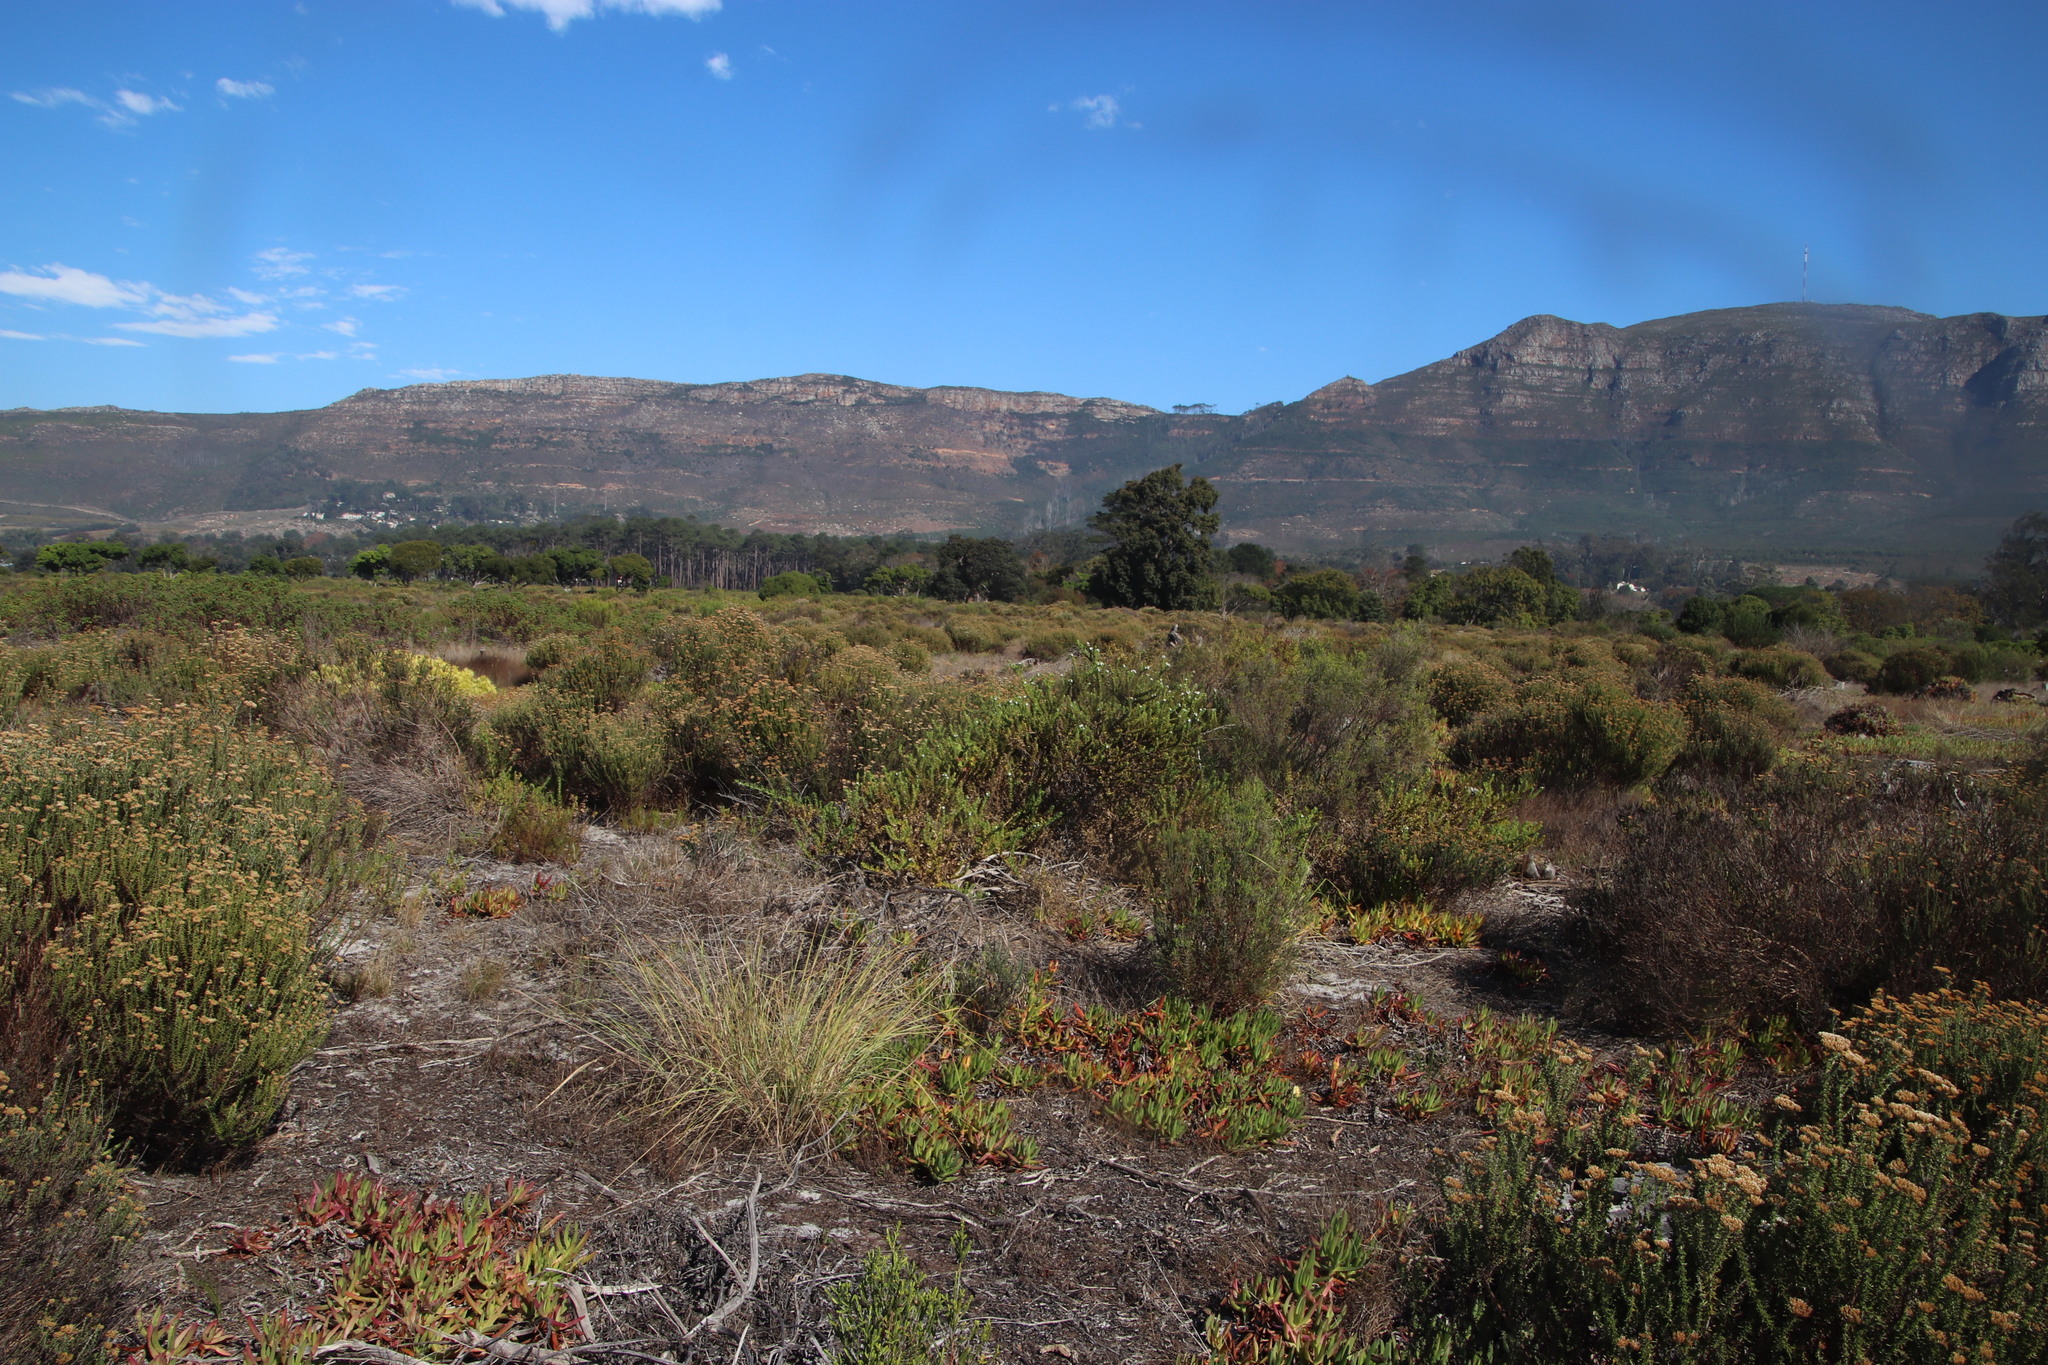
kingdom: Plantae
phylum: Tracheophyta
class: Magnoliopsida
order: Lamiales
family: Scrophulariaceae
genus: Oftia
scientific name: Oftia africana
